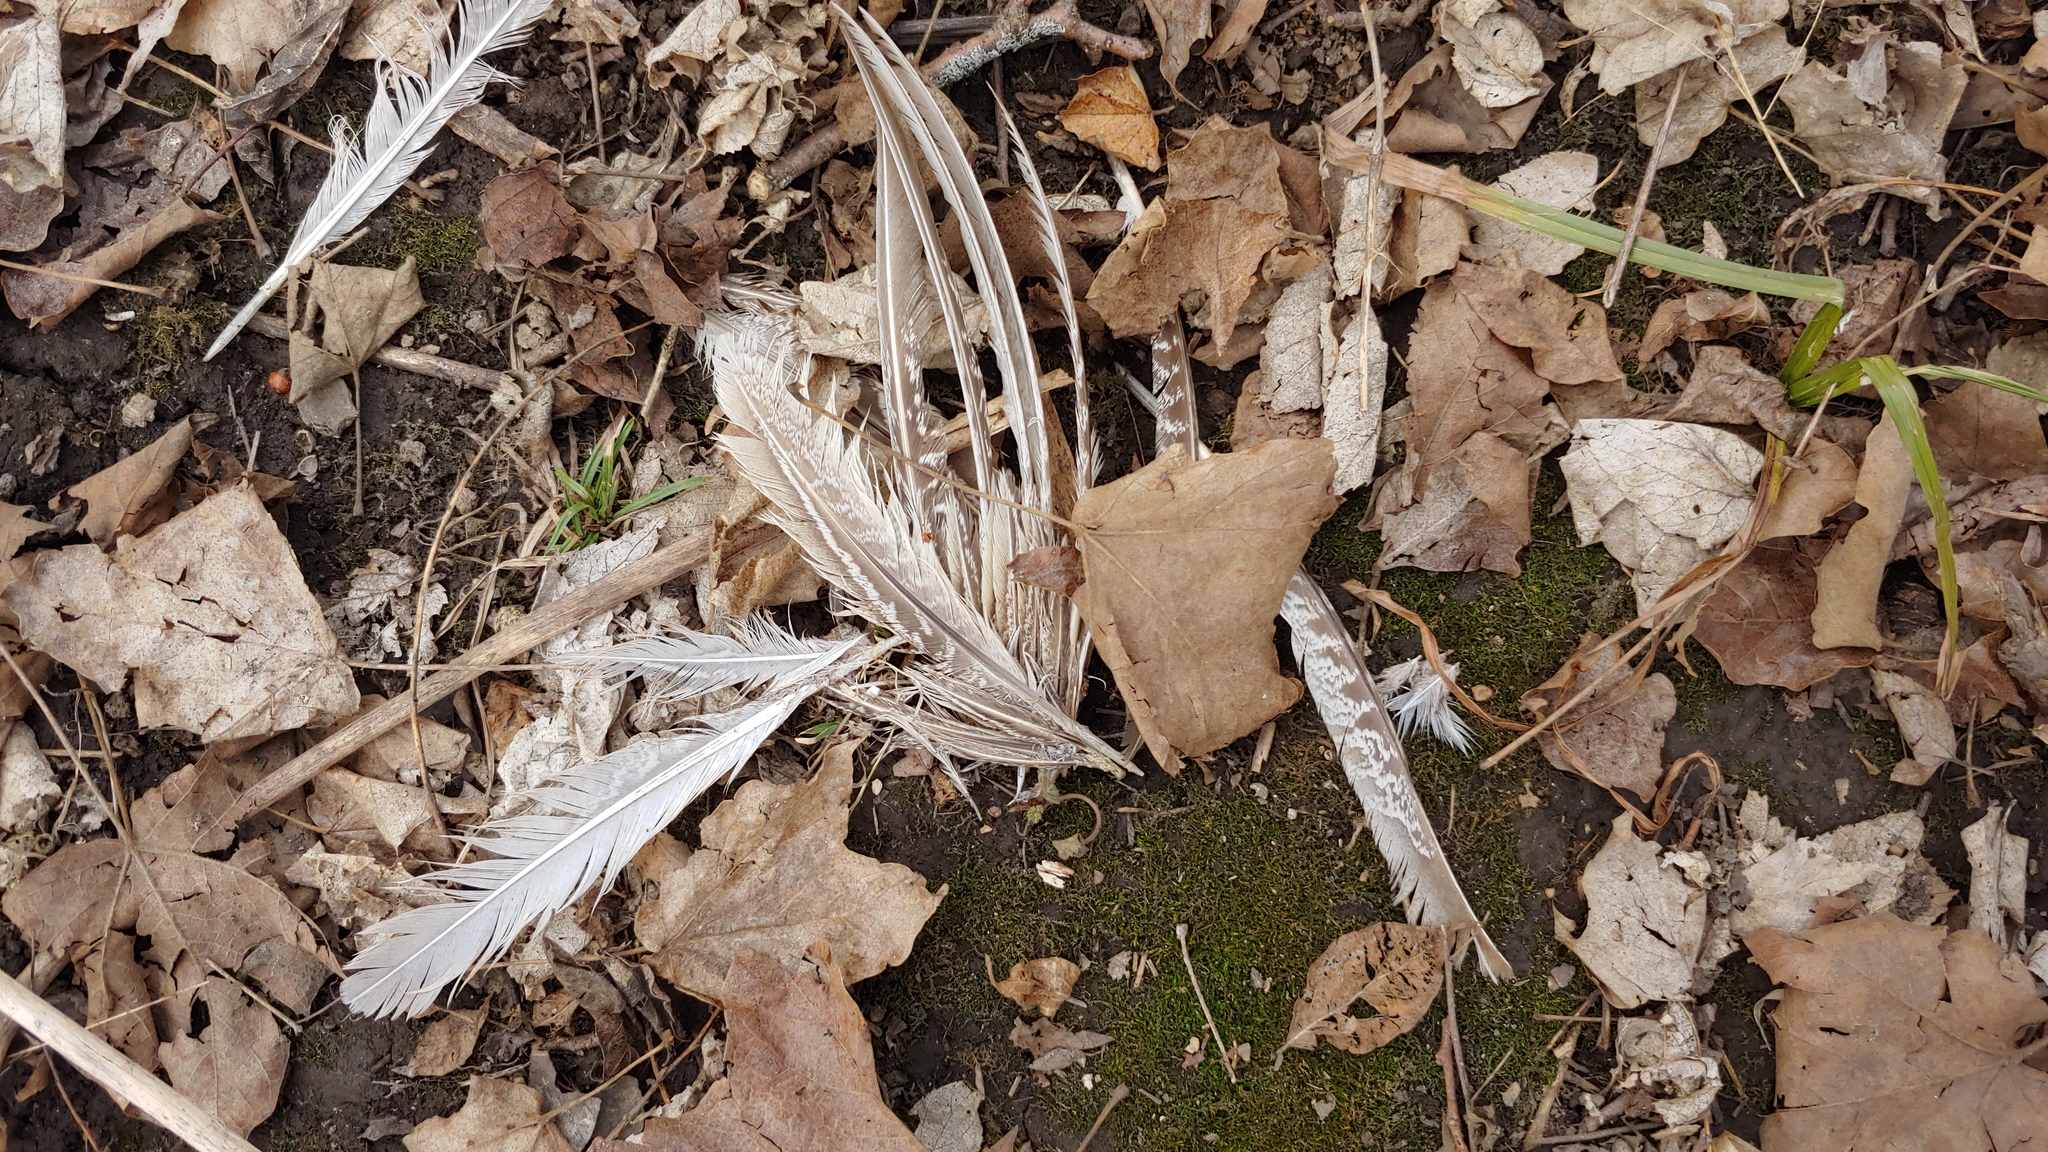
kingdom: Animalia
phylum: Chordata
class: Aves
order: Galliformes
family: Phasianidae
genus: Phasianus
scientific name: Phasianus colchicus
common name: Common pheasant
